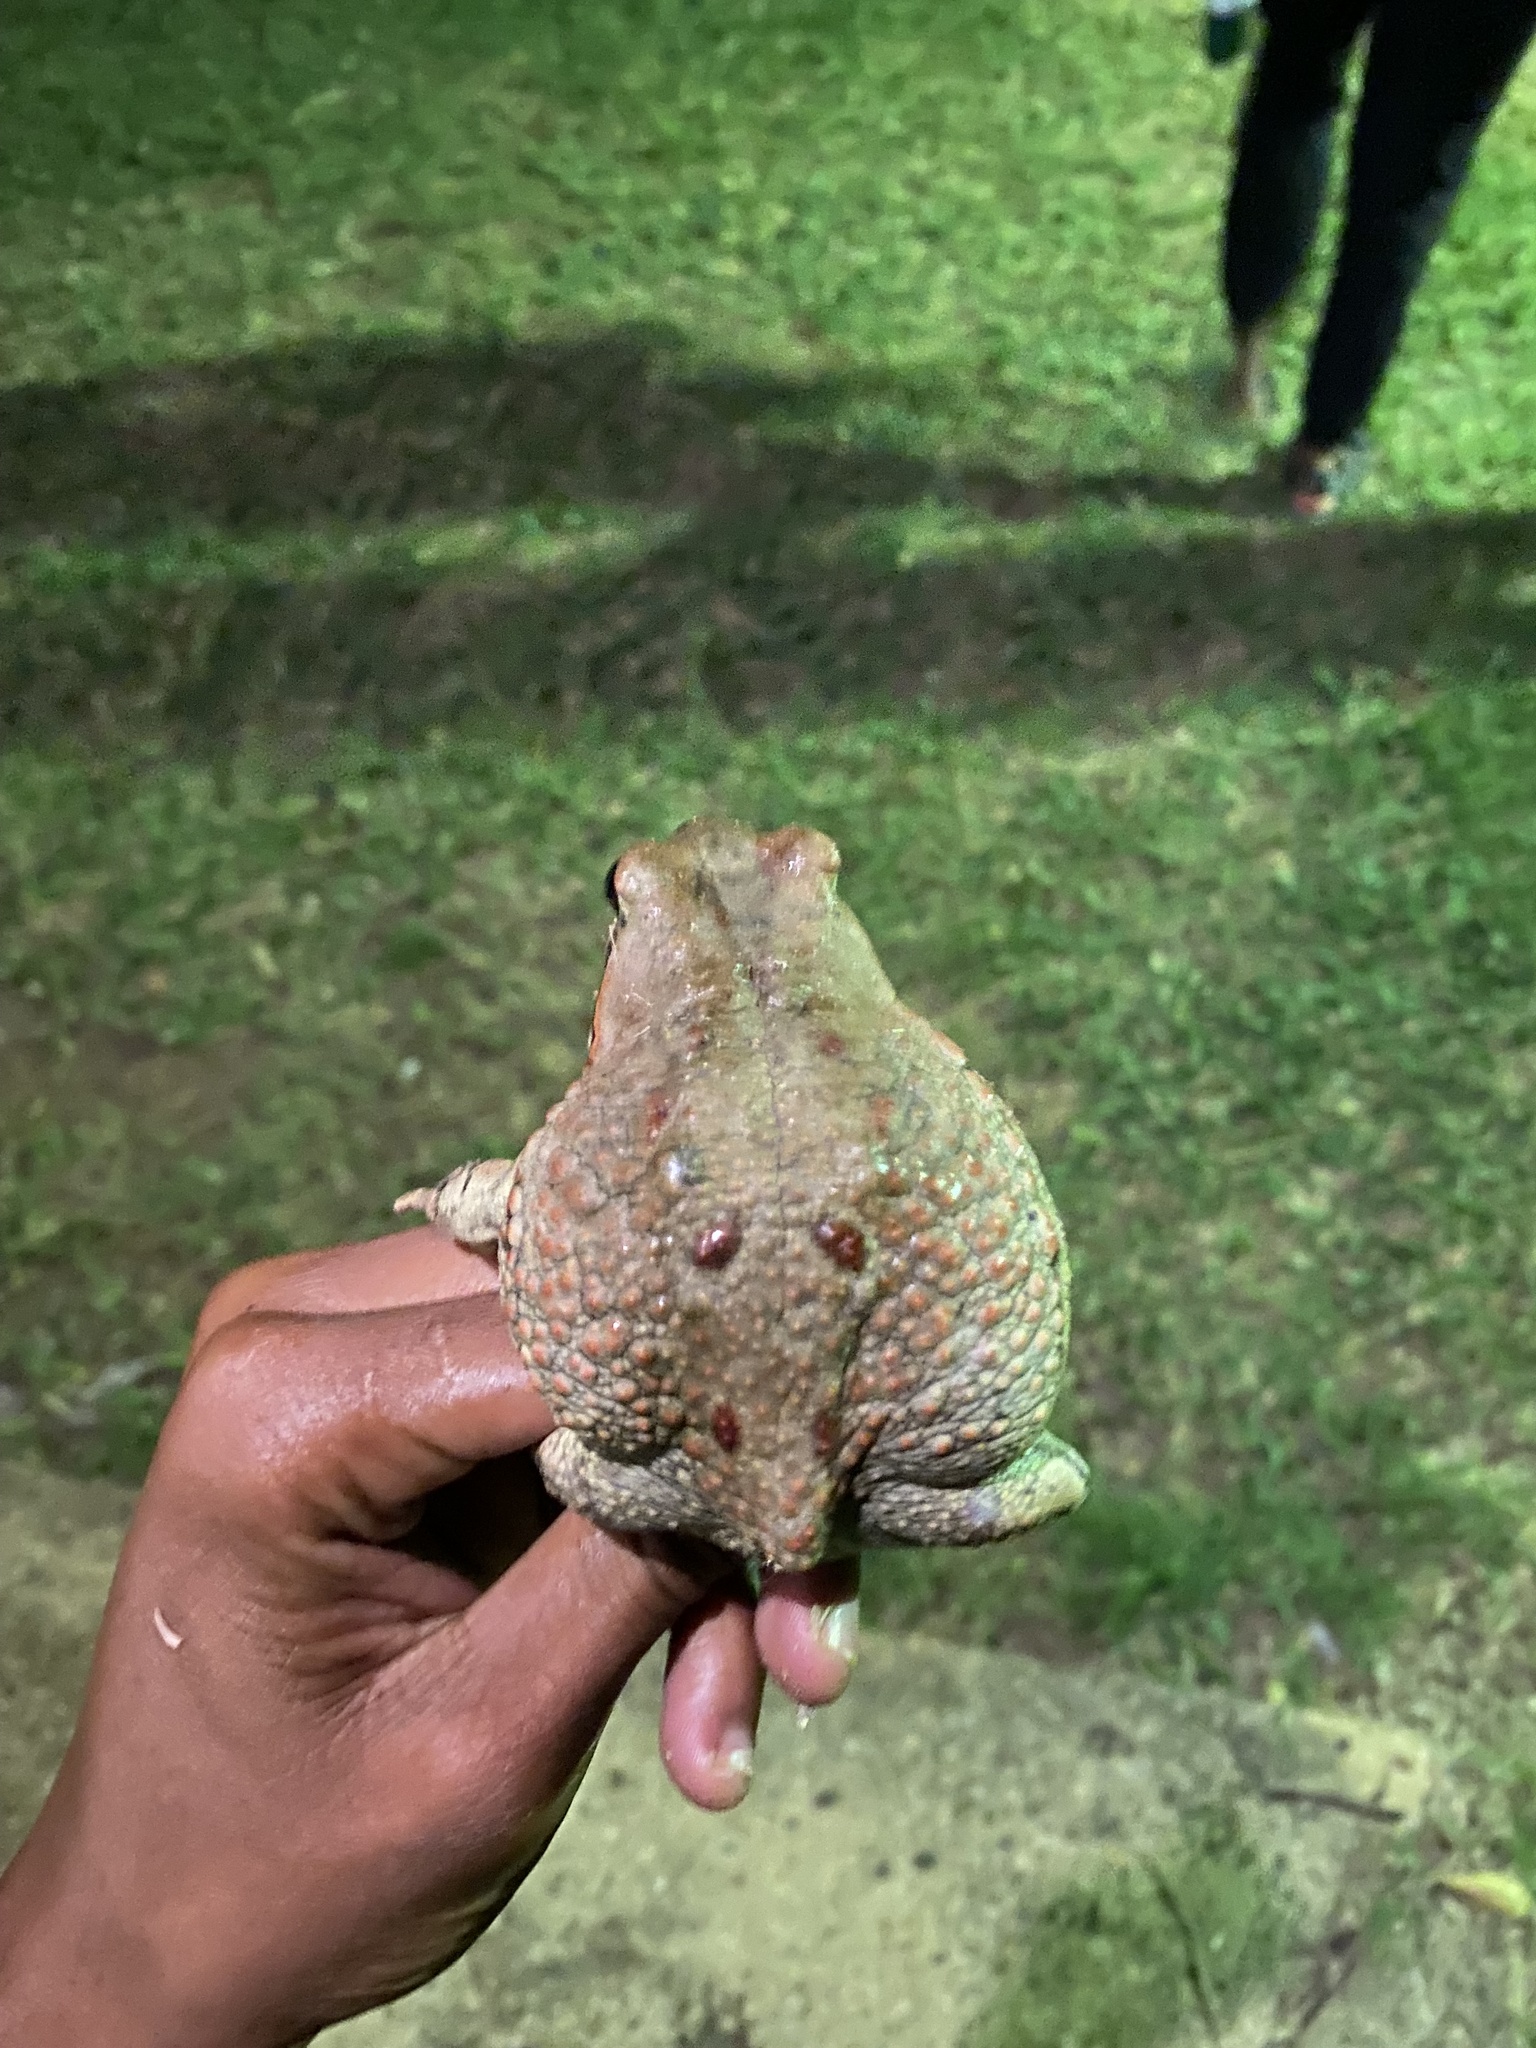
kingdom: Animalia
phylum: Chordata
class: Amphibia
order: Anura
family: Bufonidae
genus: Schismaderma
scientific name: Schismaderma carens
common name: African split-skin toad
